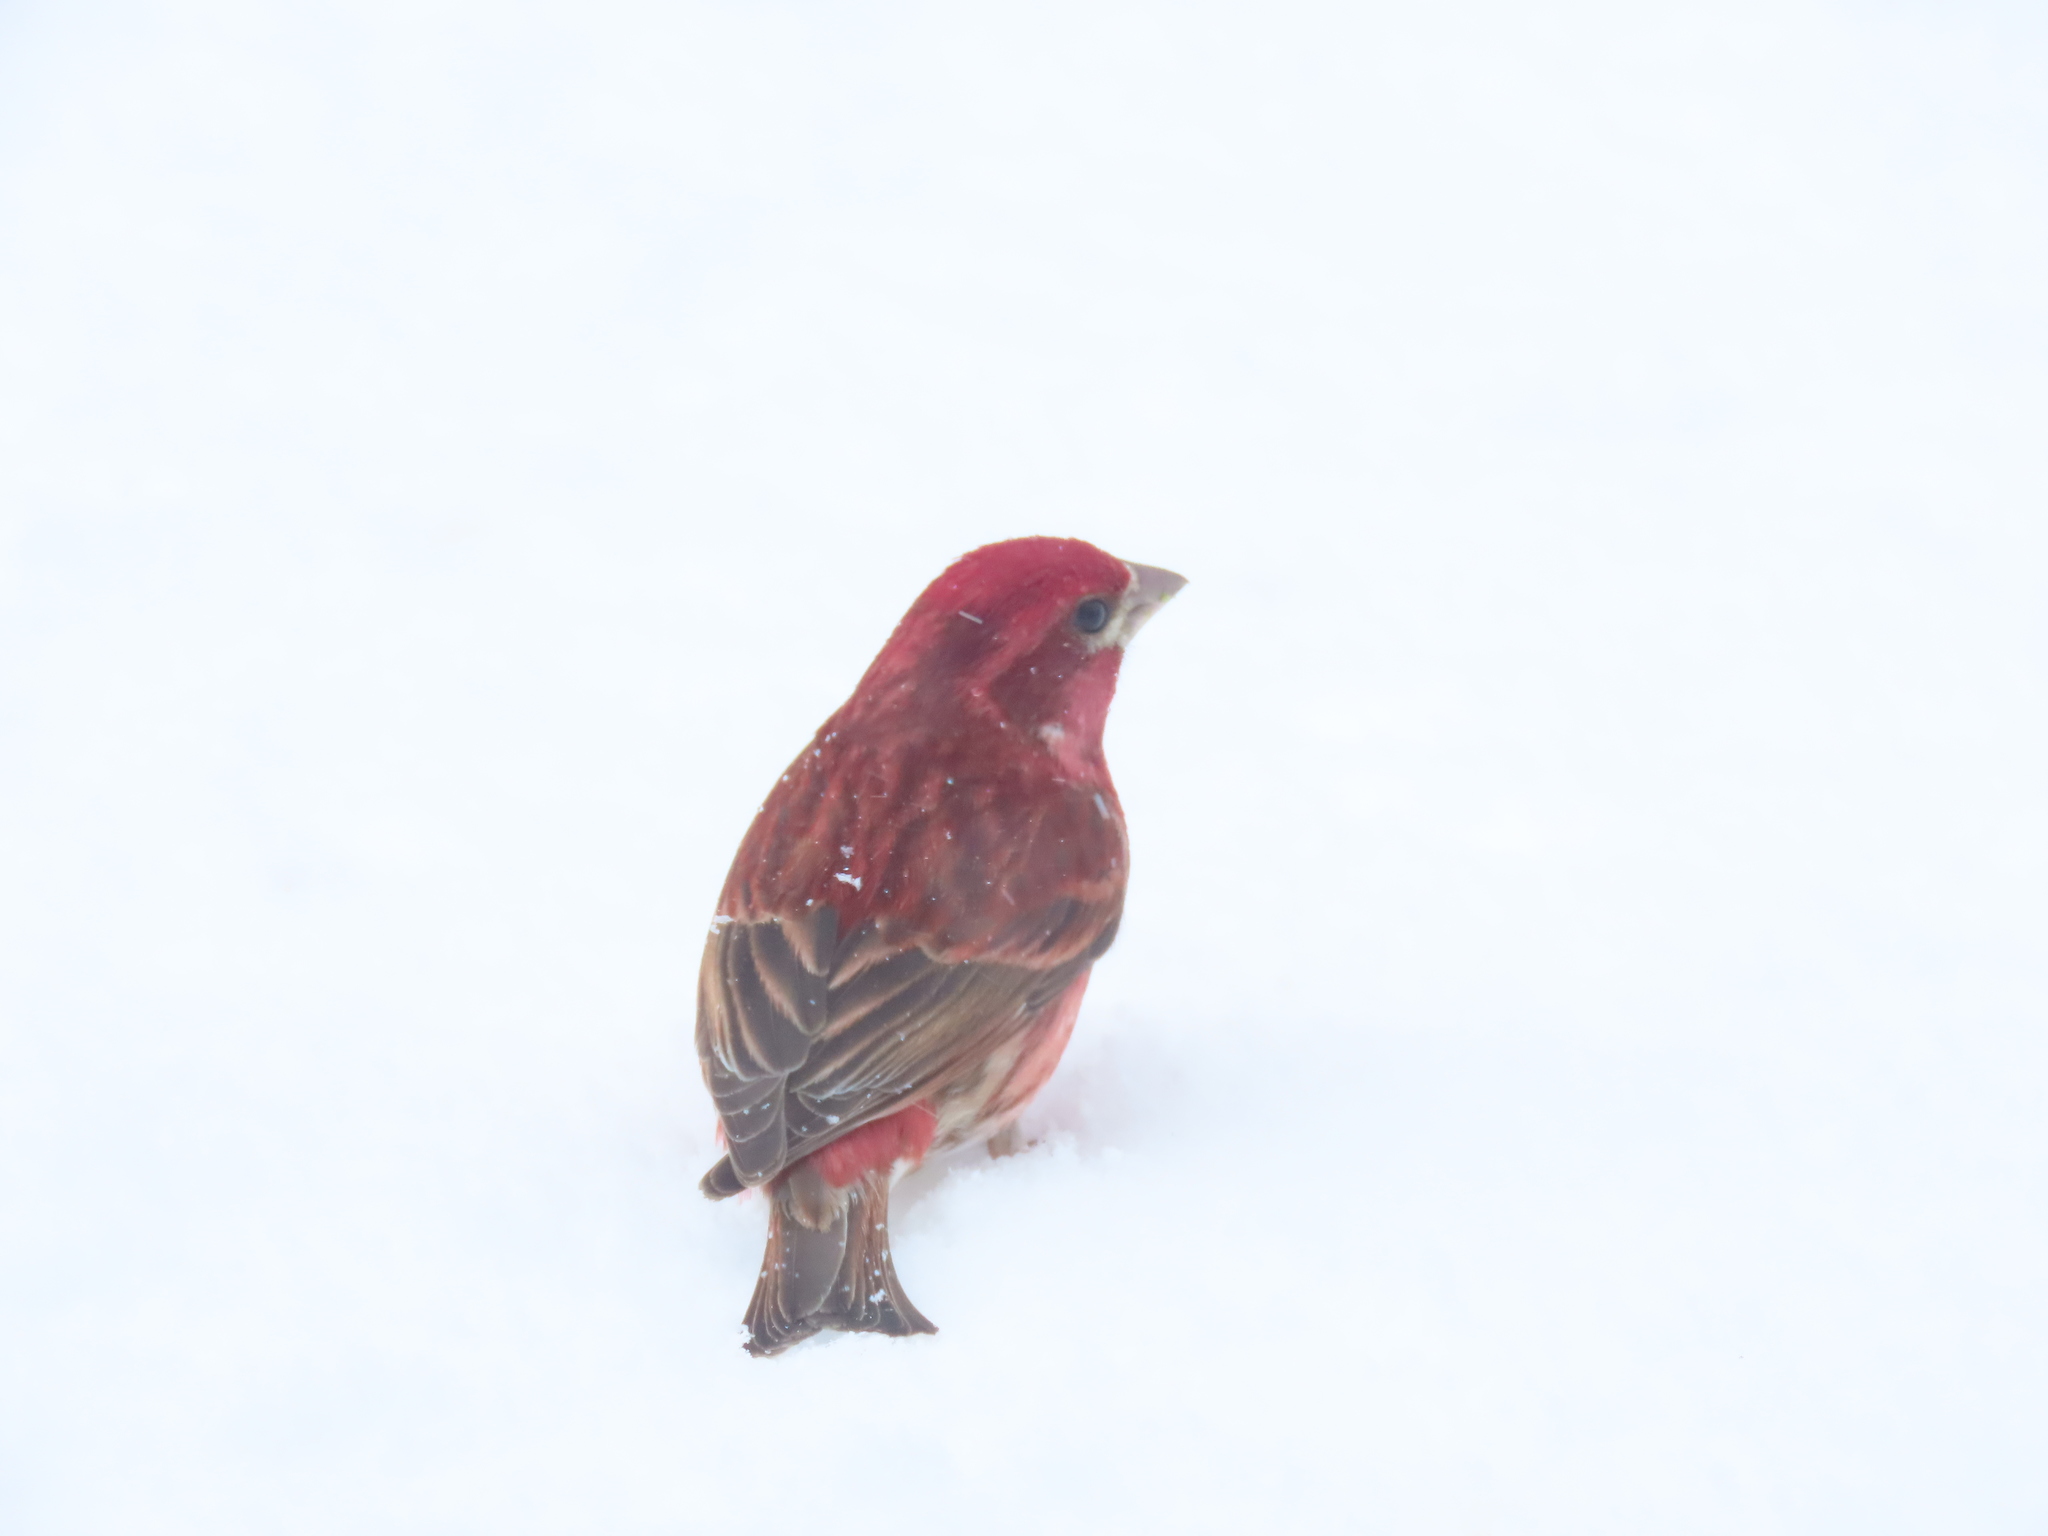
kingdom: Animalia
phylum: Chordata
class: Aves
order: Passeriformes
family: Fringillidae
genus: Haemorhous
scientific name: Haemorhous purpureus
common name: Purple finch
